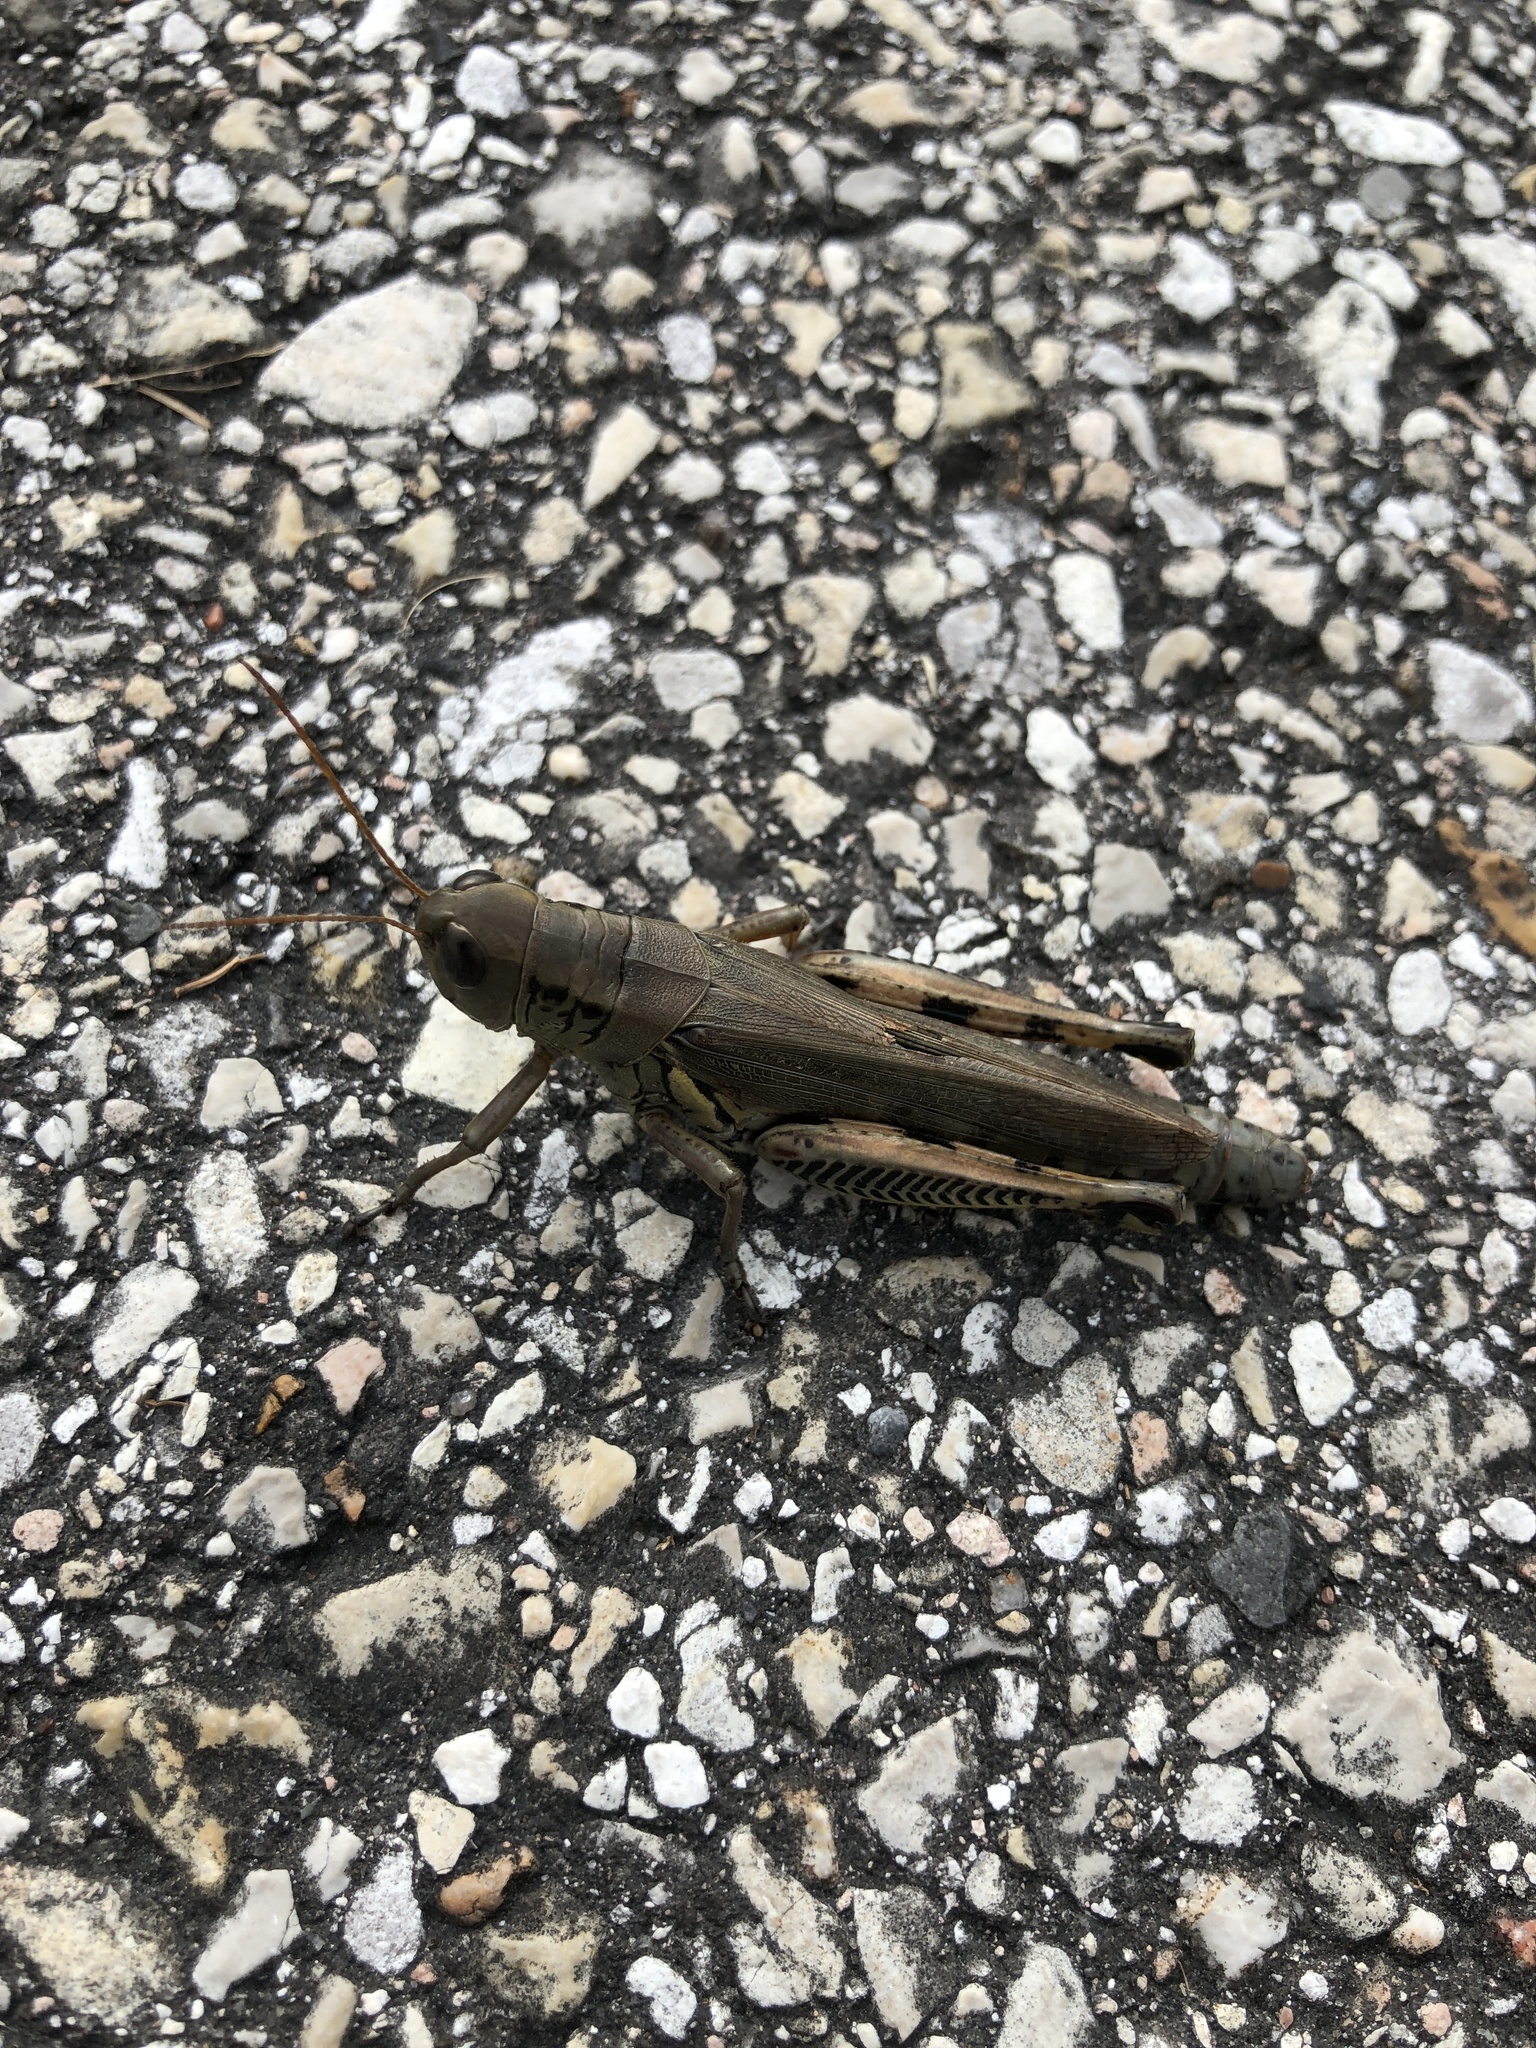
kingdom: Animalia
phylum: Arthropoda
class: Insecta
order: Orthoptera
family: Acrididae
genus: Melanoplus
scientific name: Melanoplus differentialis
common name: Differential grasshopper
